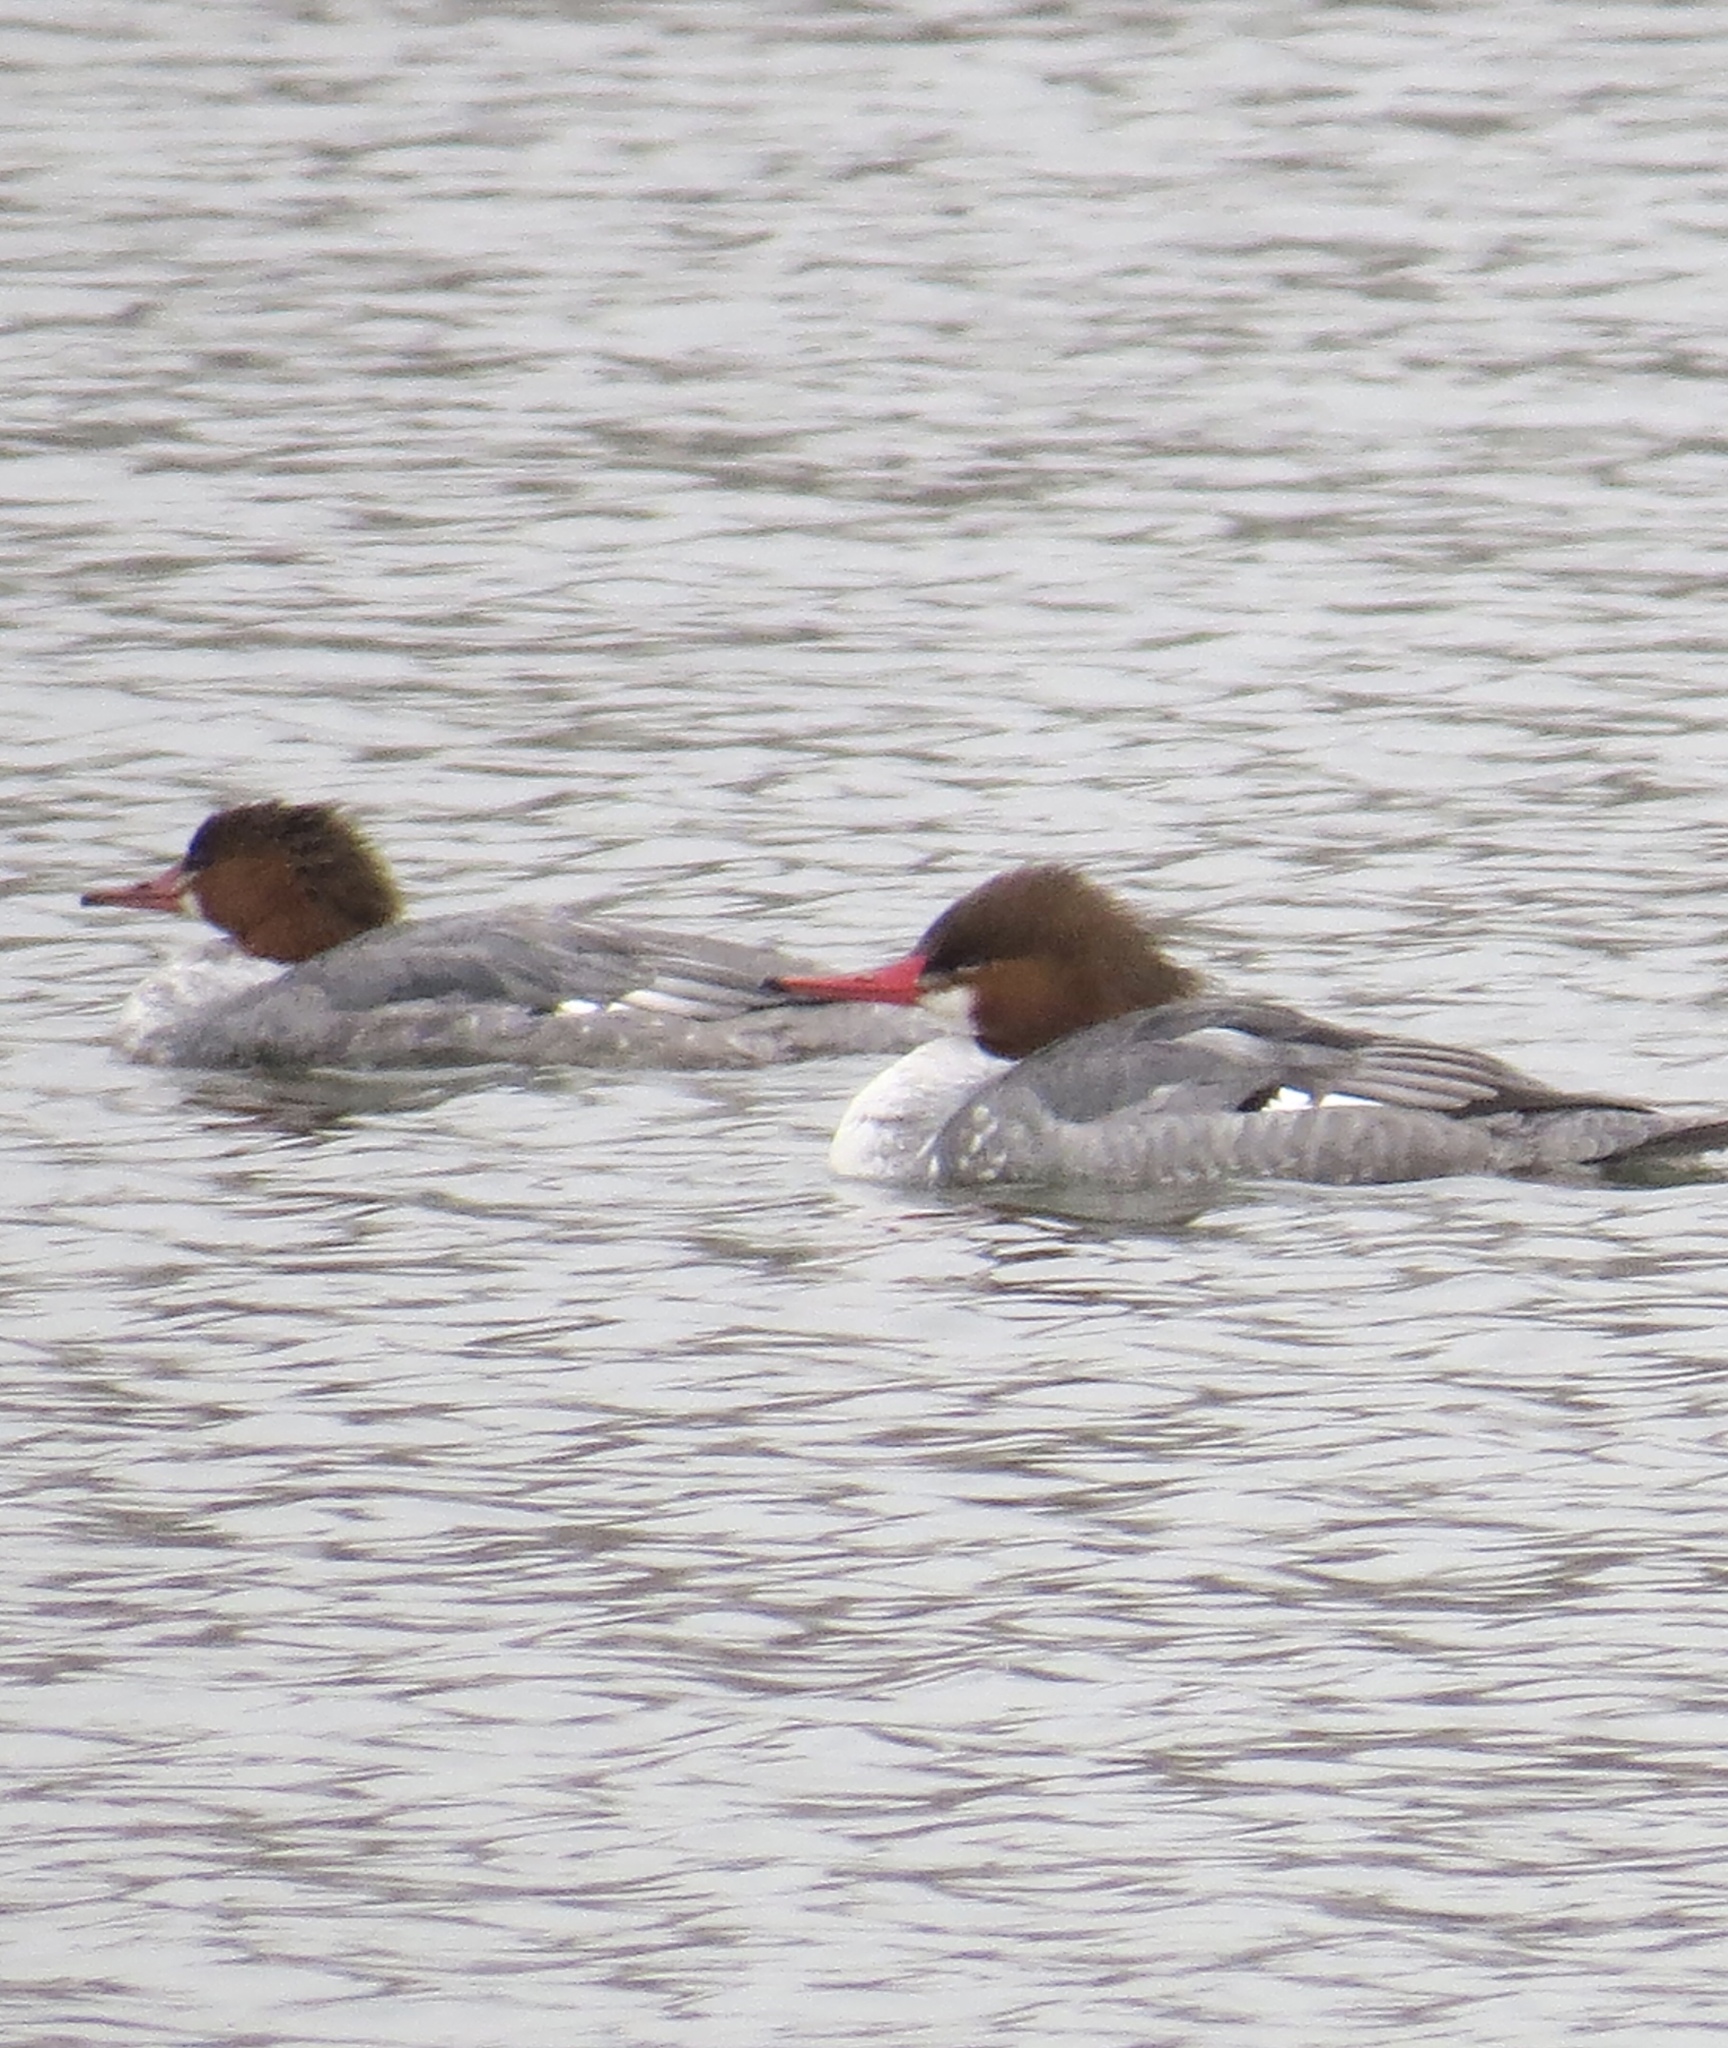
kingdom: Animalia
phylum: Chordata
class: Aves
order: Anseriformes
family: Anatidae
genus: Mergus
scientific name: Mergus merganser
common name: Common merganser
